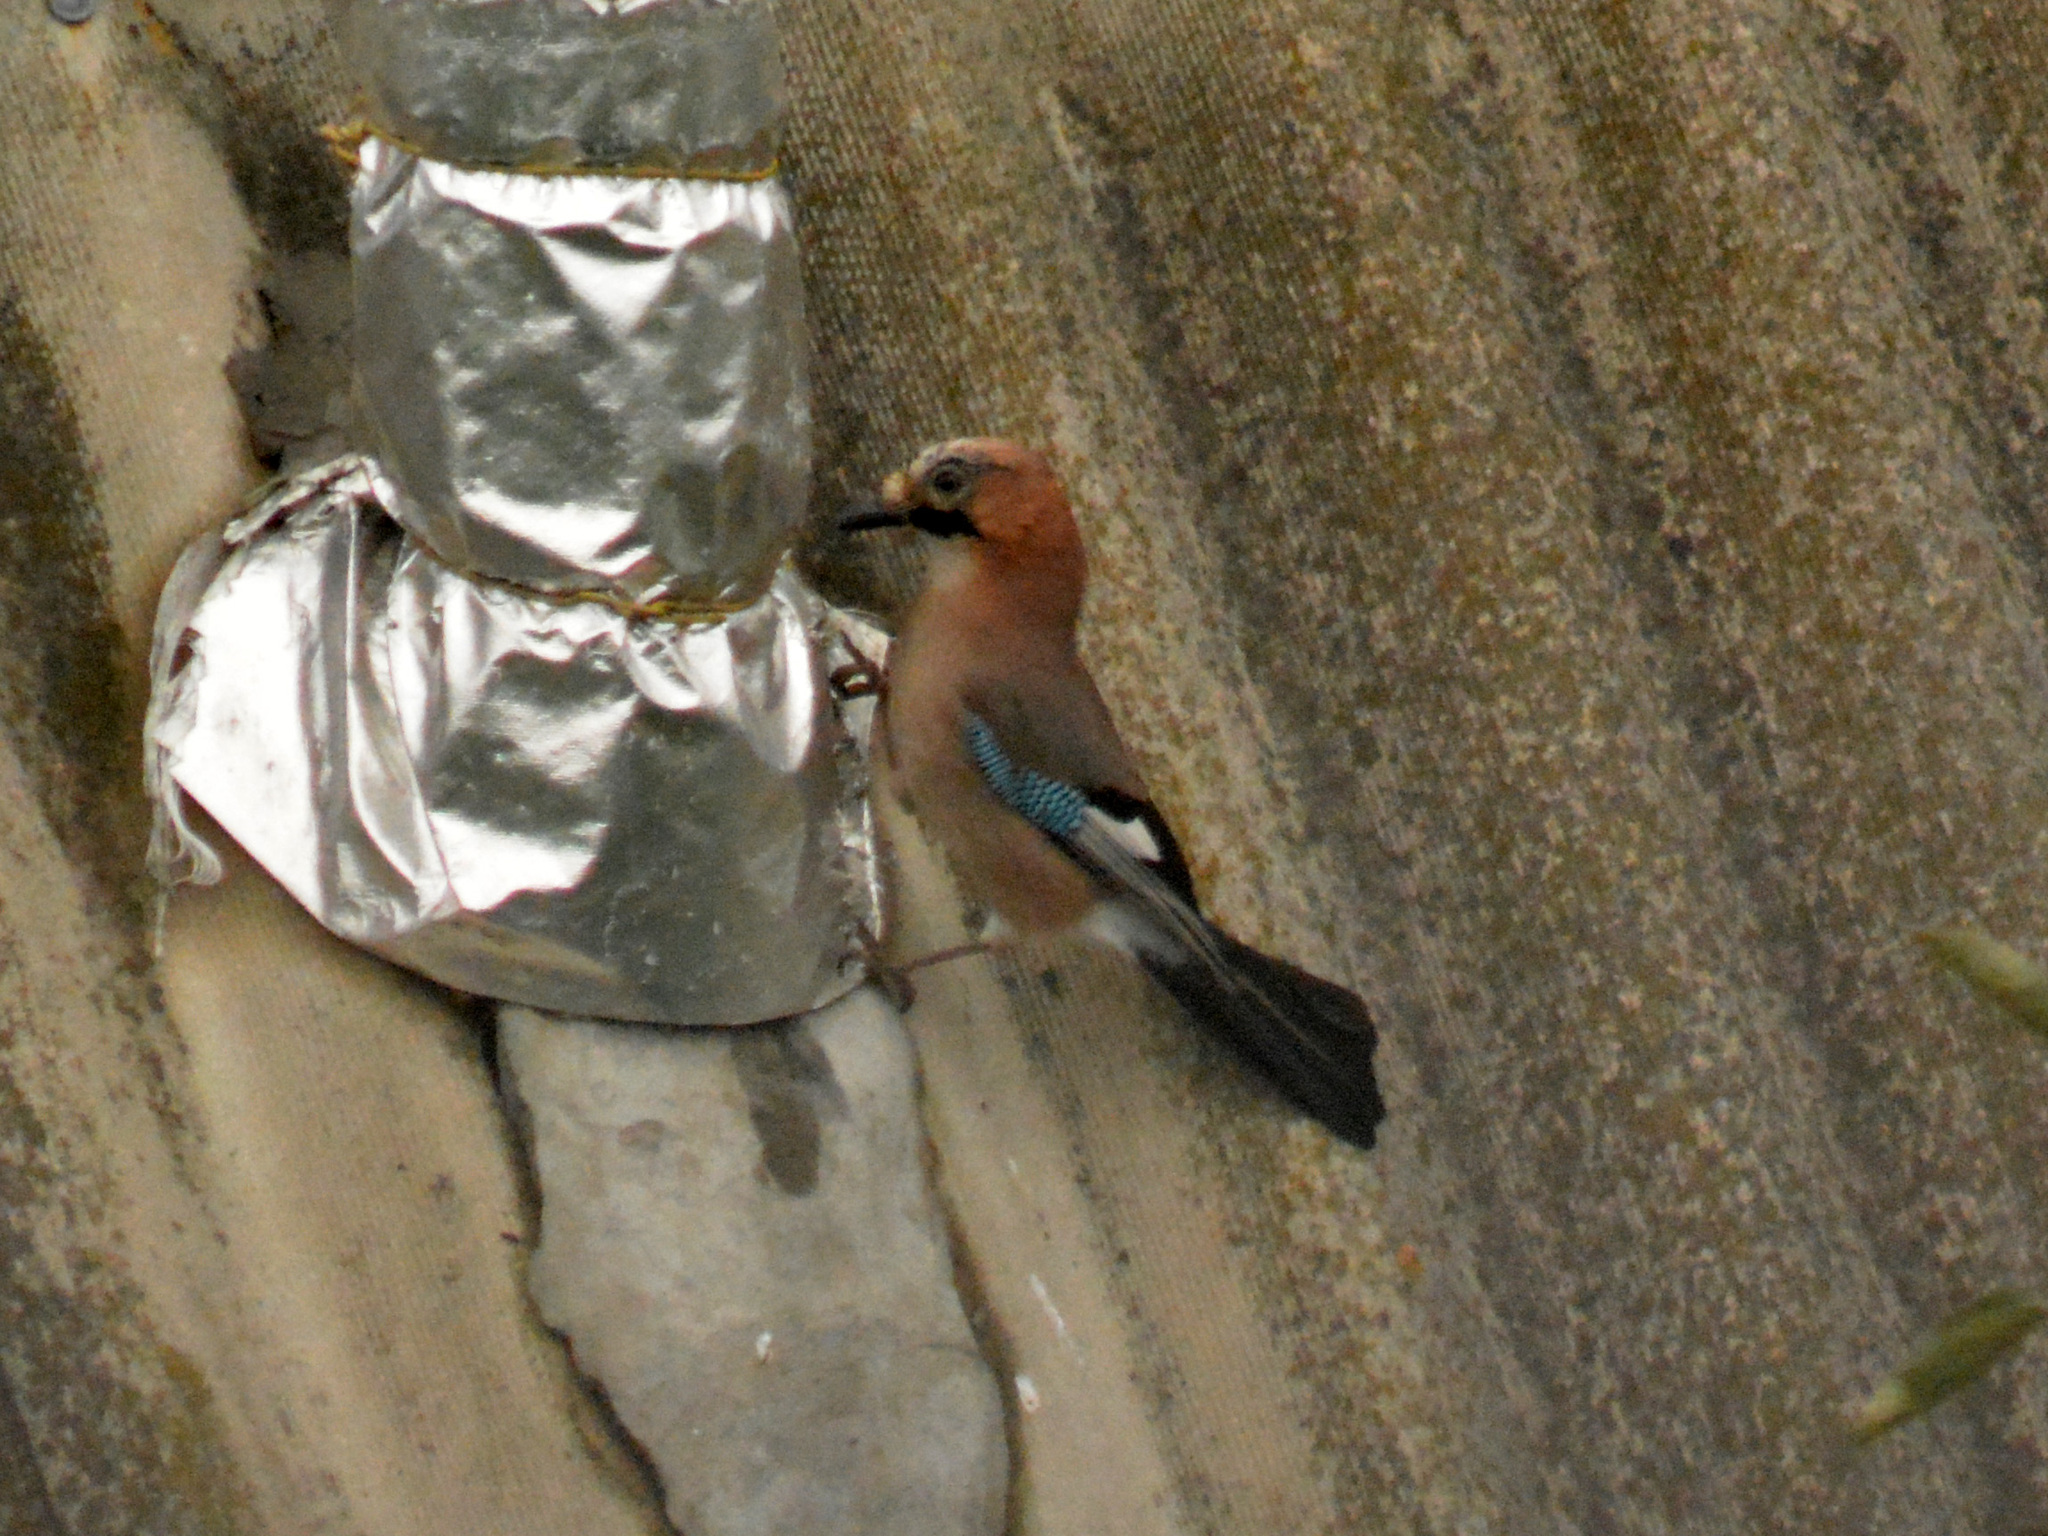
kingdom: Animalia
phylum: Chordata
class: Aves
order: Passeriformes
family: Corvidae
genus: Garrulus
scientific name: Garrulus glandarius
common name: Eurasian jay
